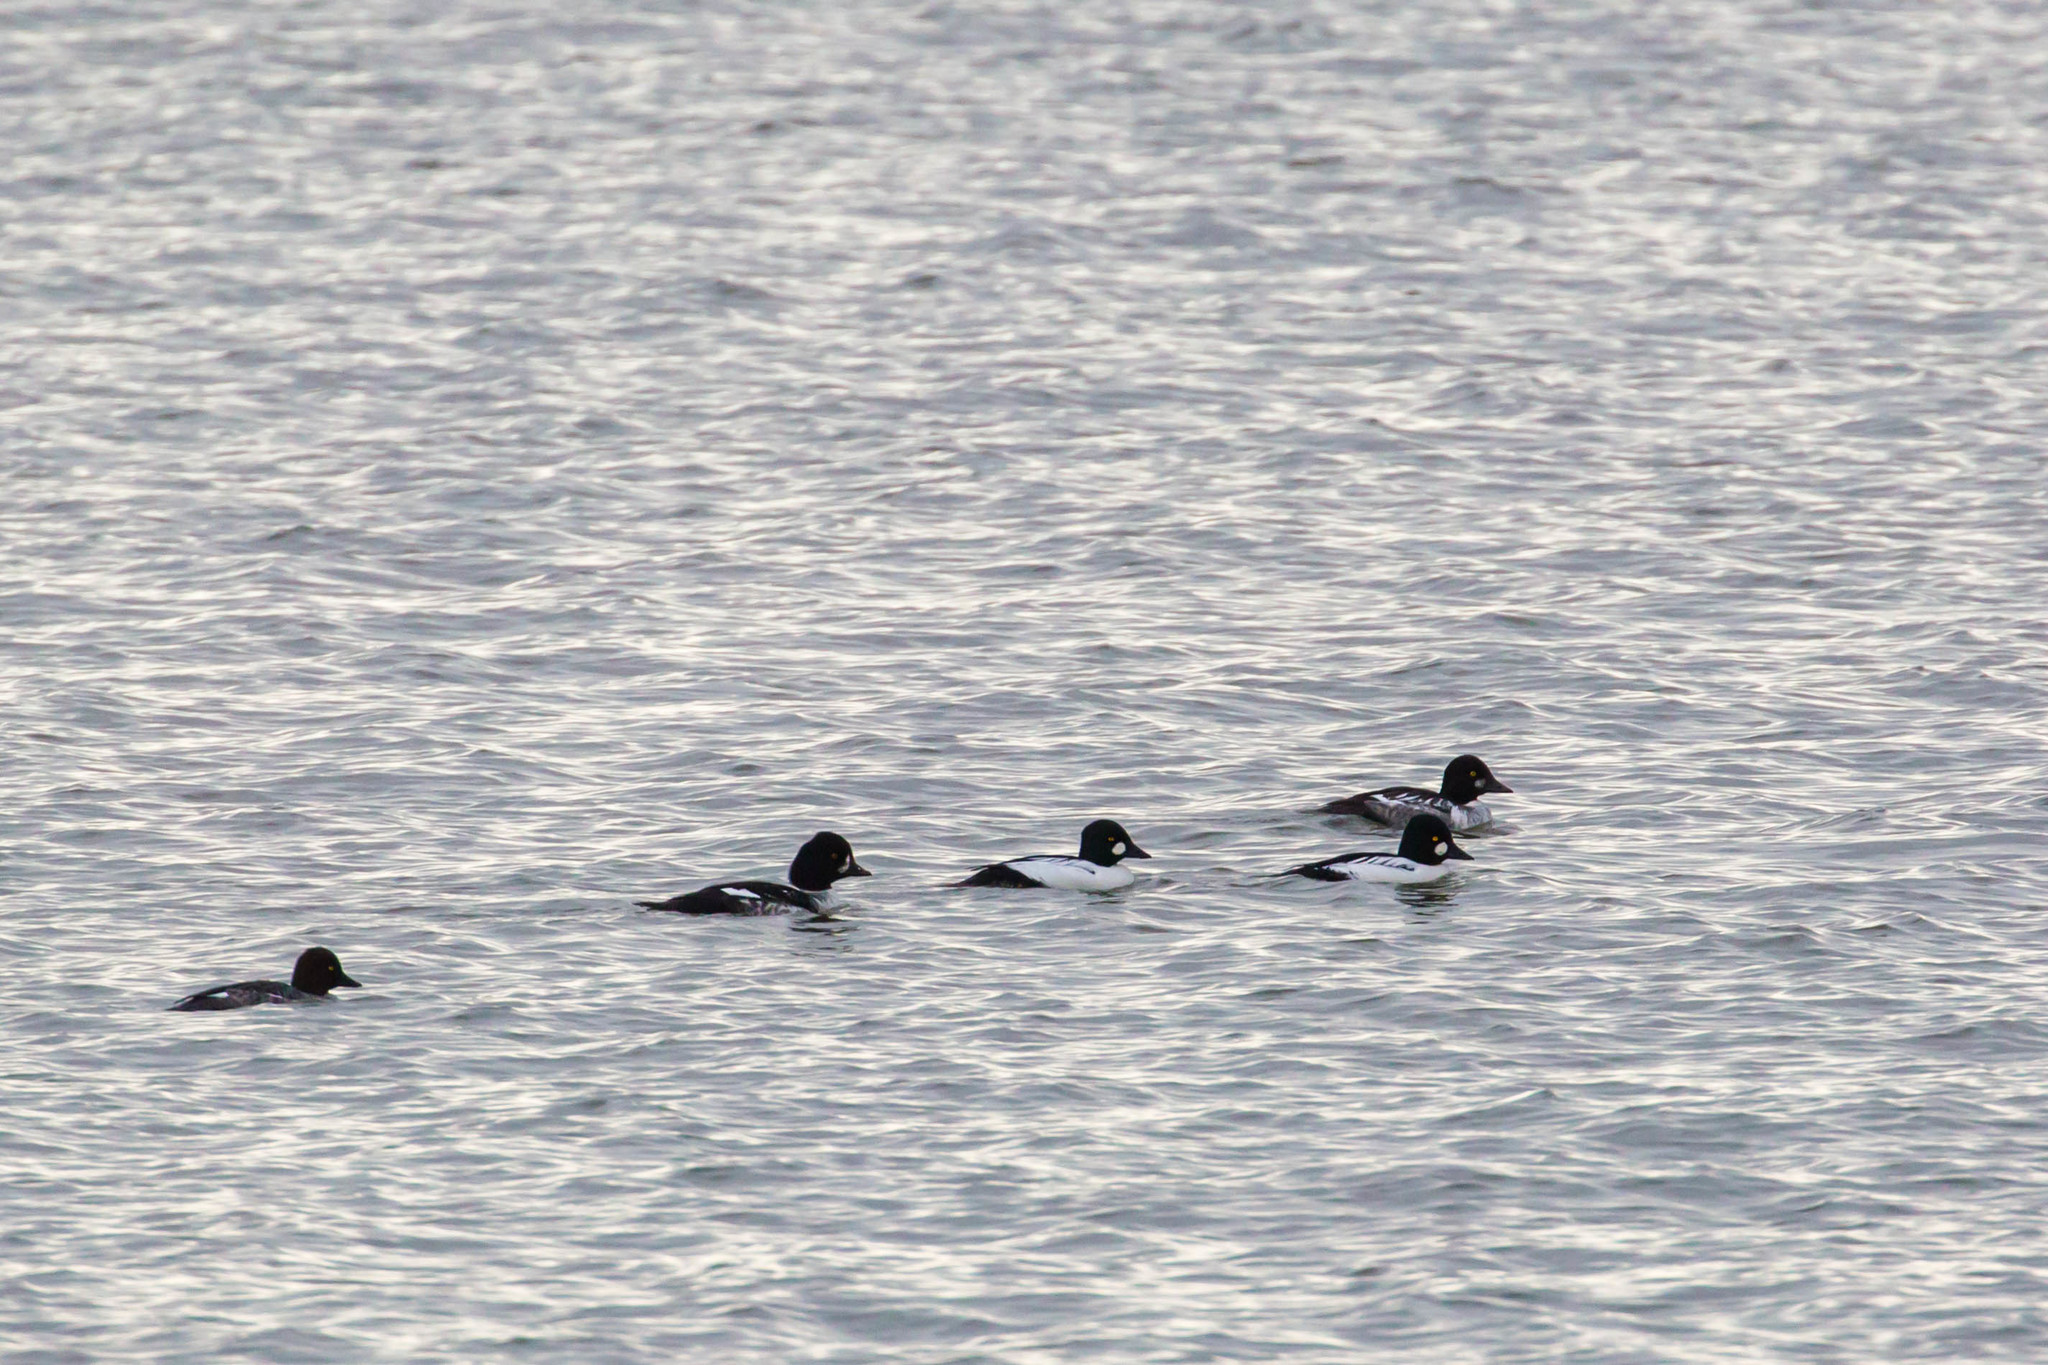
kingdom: Animalia
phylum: Chordata
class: Aves
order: Anseriformes
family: Anatidae
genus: Bucephala
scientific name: Bucephala islandica
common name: Barrow's goldeneye
